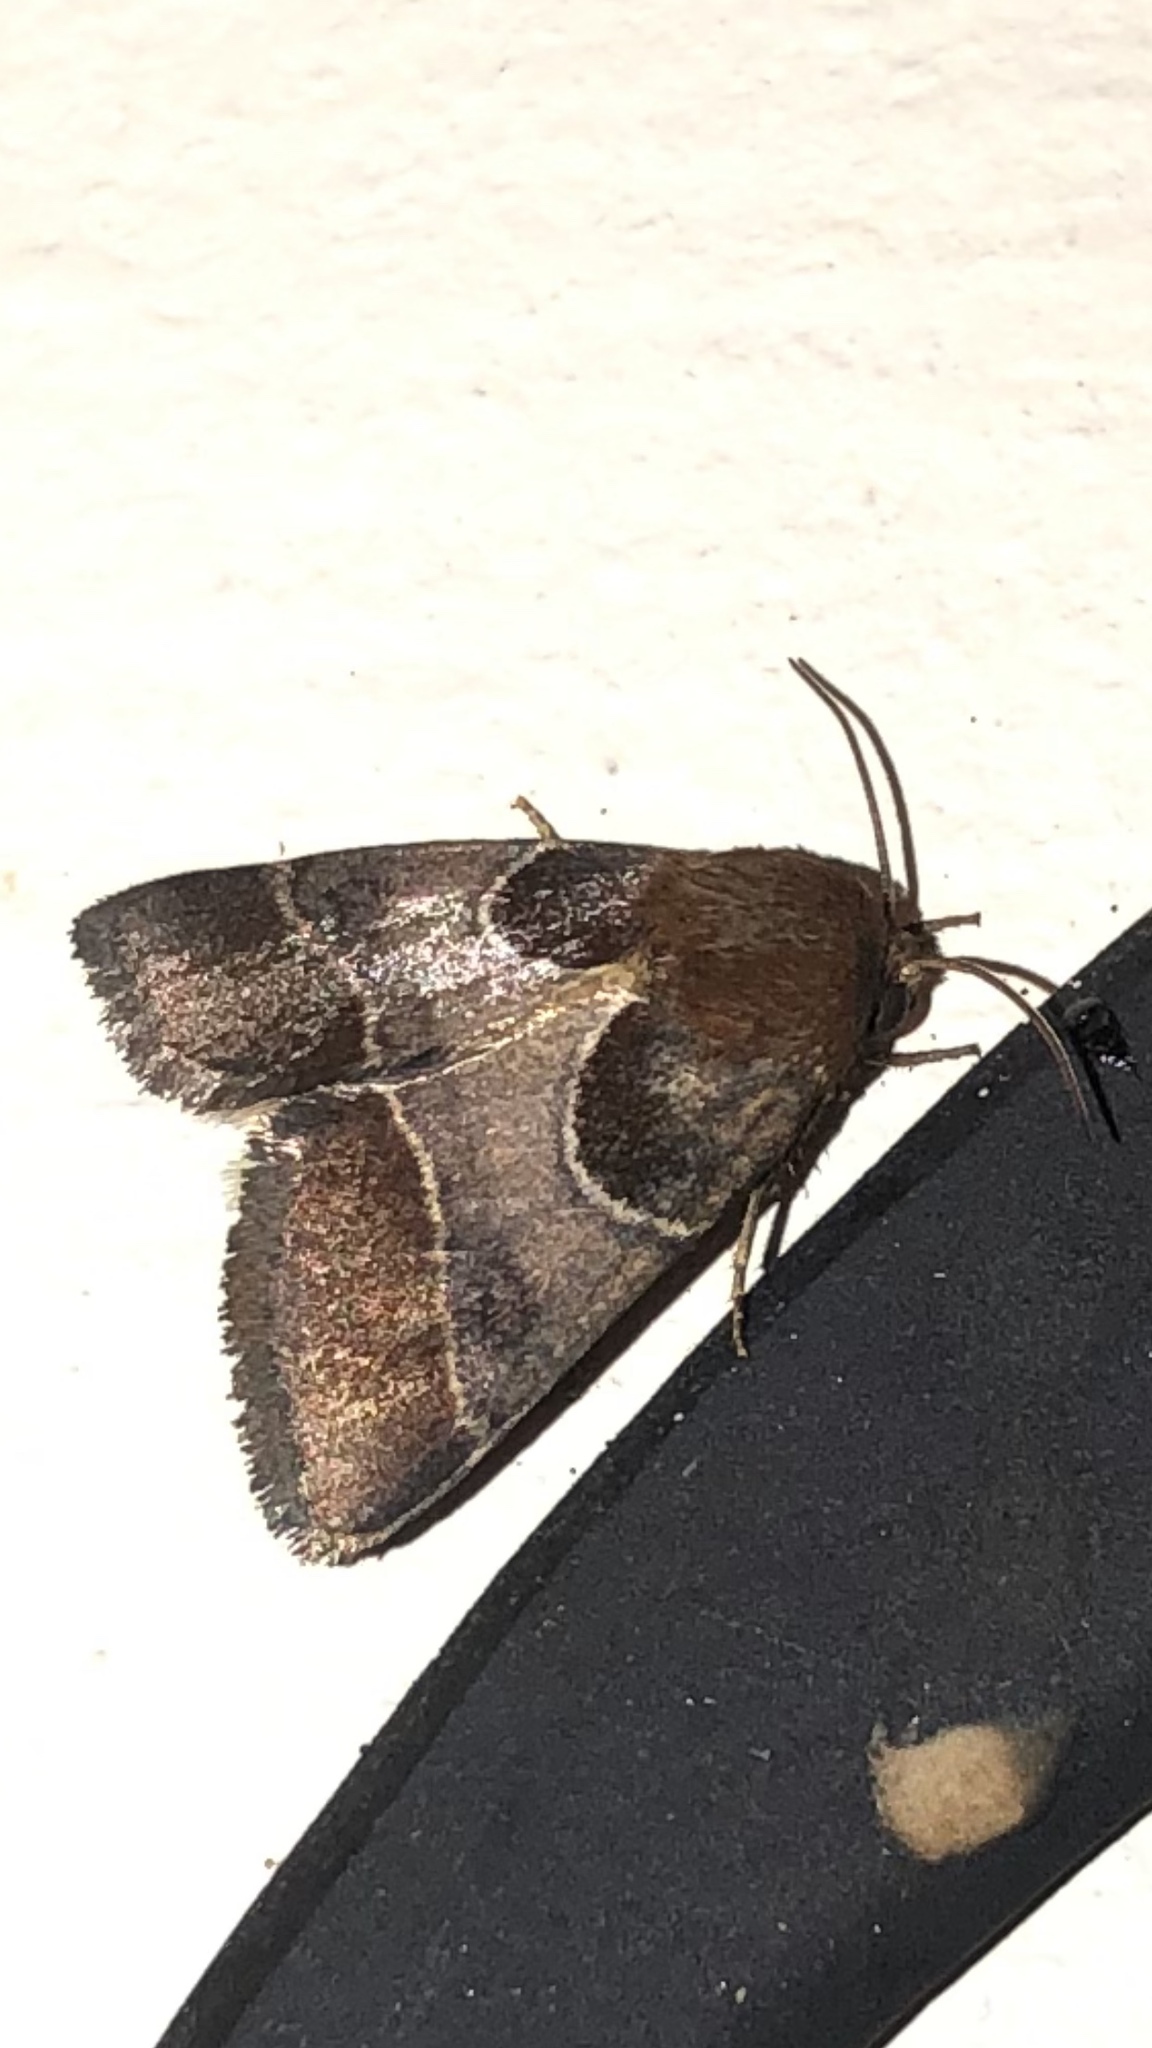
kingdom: Animalia
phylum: Arthropoda
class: Insecta
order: Lepidoptera
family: Noctuidae
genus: Schinia
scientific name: Schinia arcigera
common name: Arcigera flower moth
